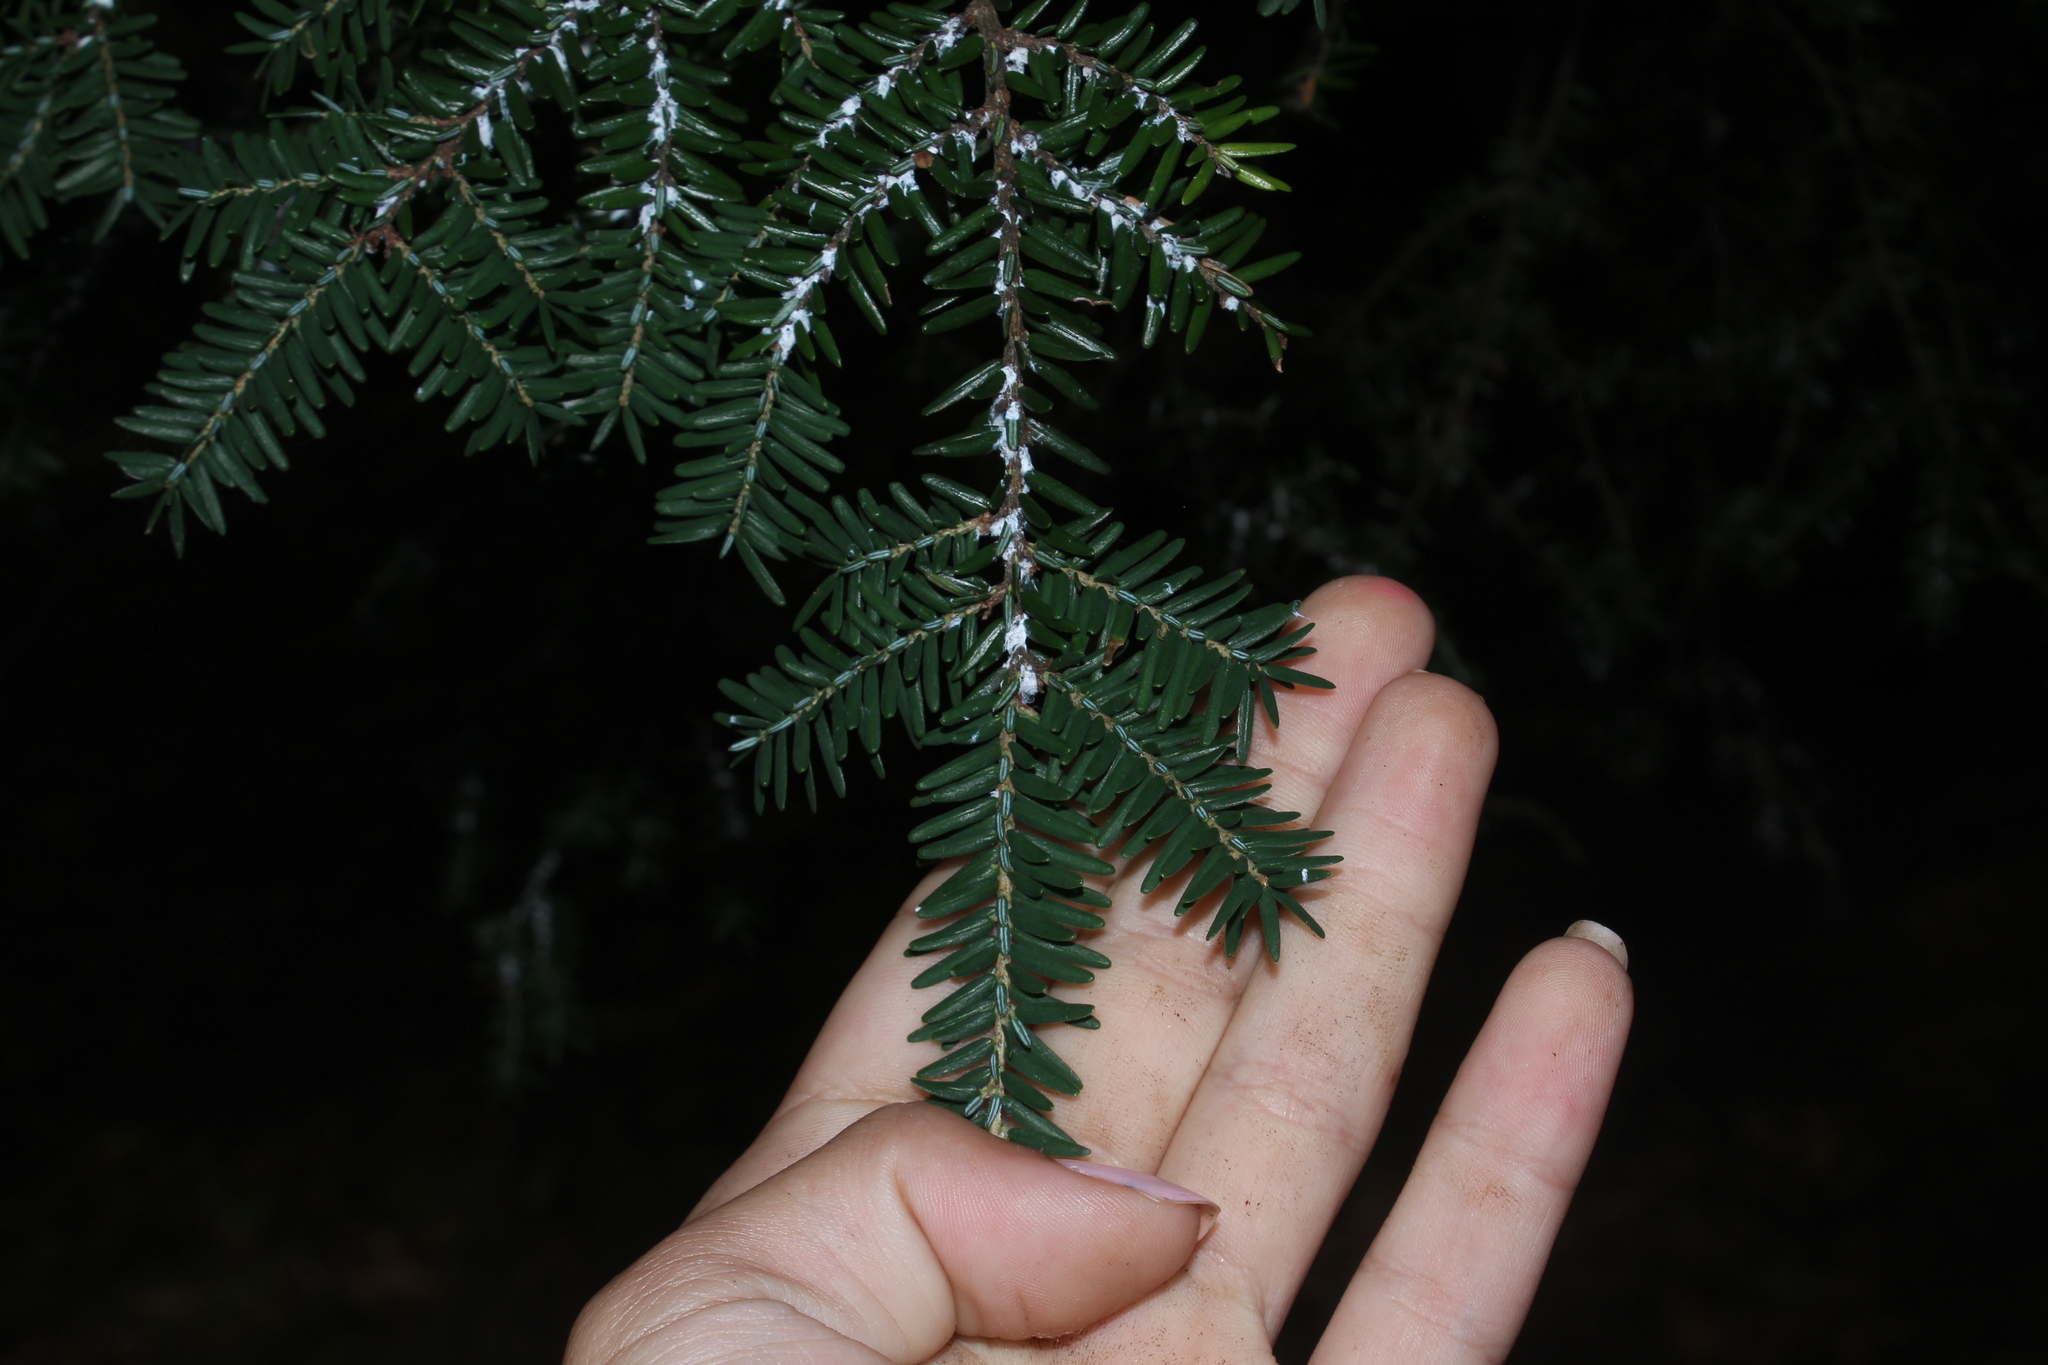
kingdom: Plantae
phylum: Tracheophyta
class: Pinopsida
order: Pinales
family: Pinaceae
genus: Tsuga
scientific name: Tsuga canadensis
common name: Eastern hemlock
